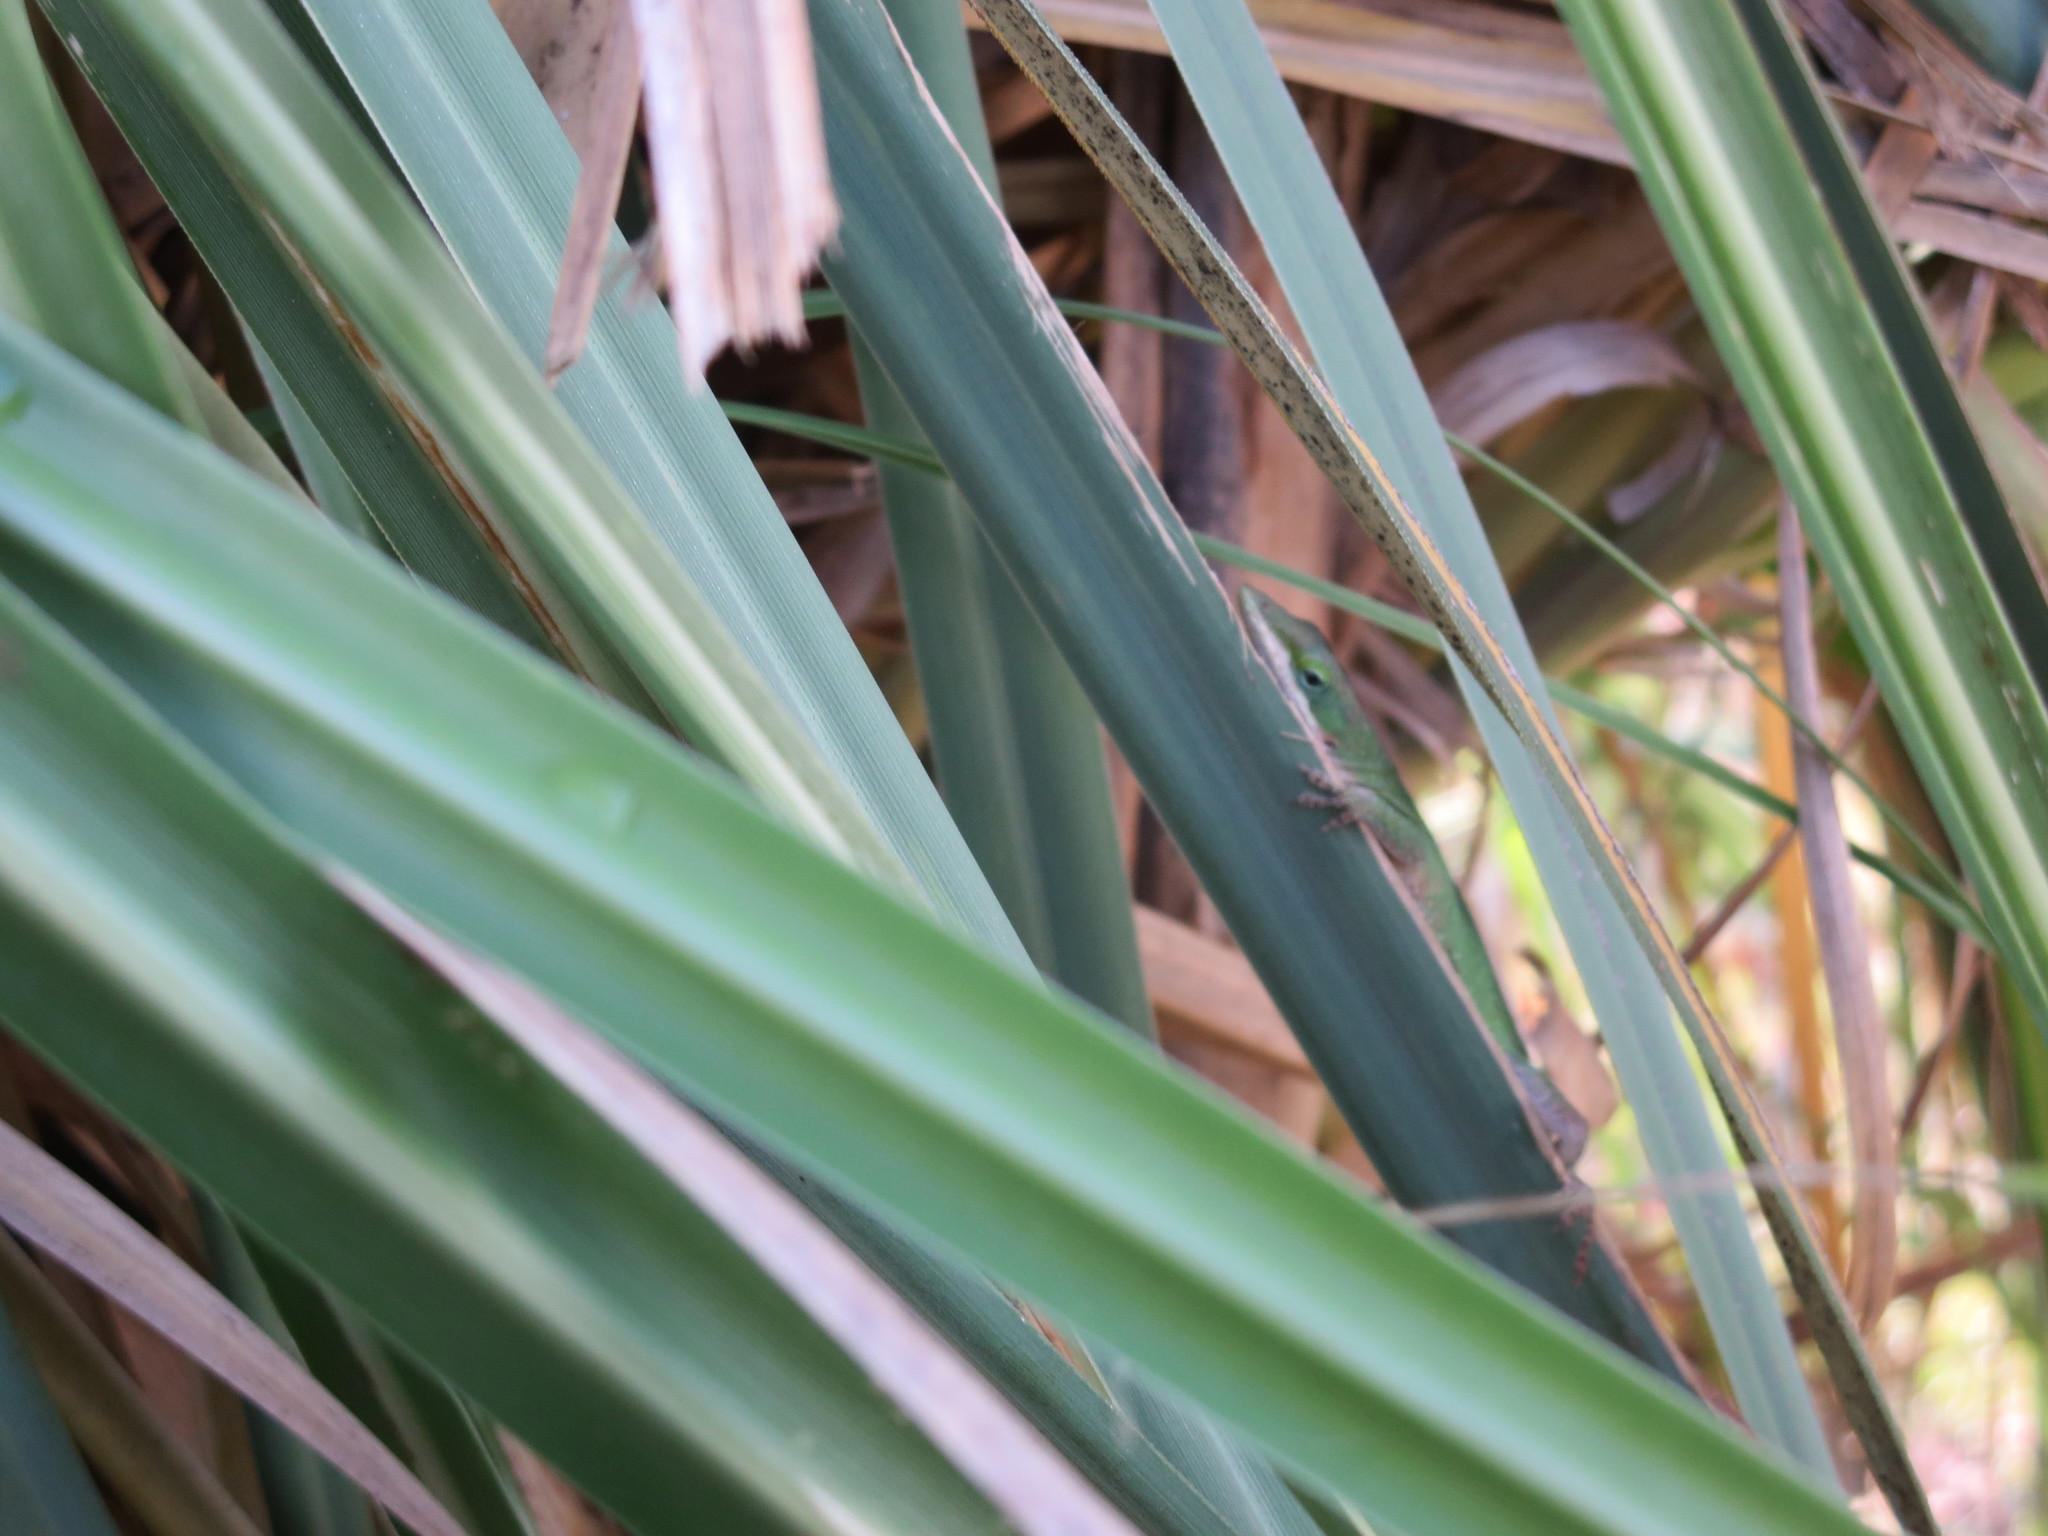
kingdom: Animalia
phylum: Chordata
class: Squamata
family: Dactyloidae
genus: Anolis
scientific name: Anolis carolinensis
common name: Green anole
